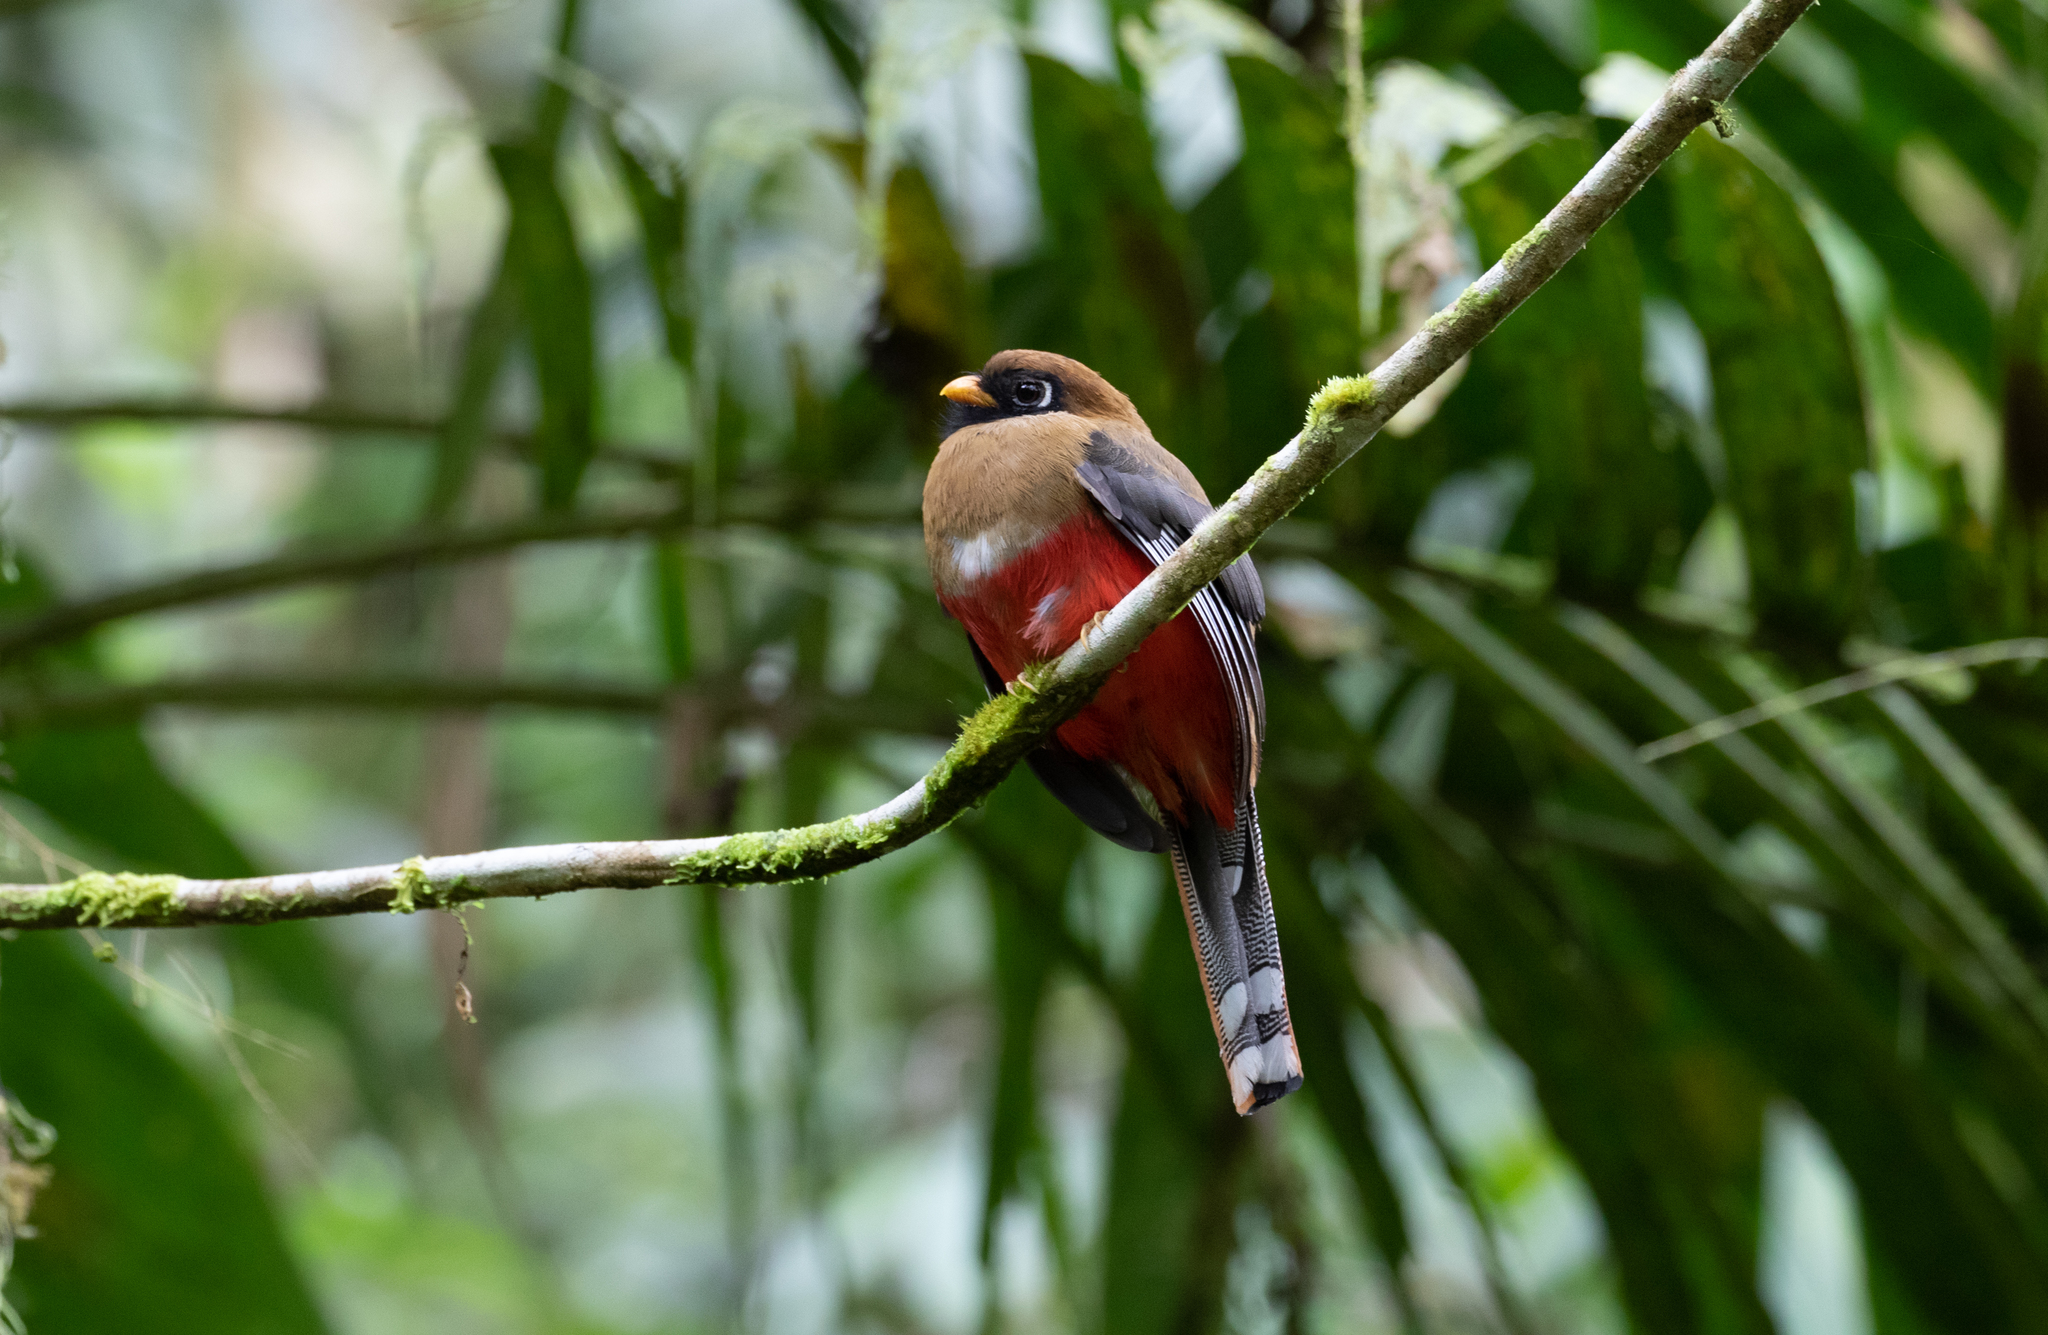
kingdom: Animalia
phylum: Chordata
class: Aves
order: Trogoniformes
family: Trogonidae
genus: Trogon
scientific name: Trogon personatus
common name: Masked trogon
